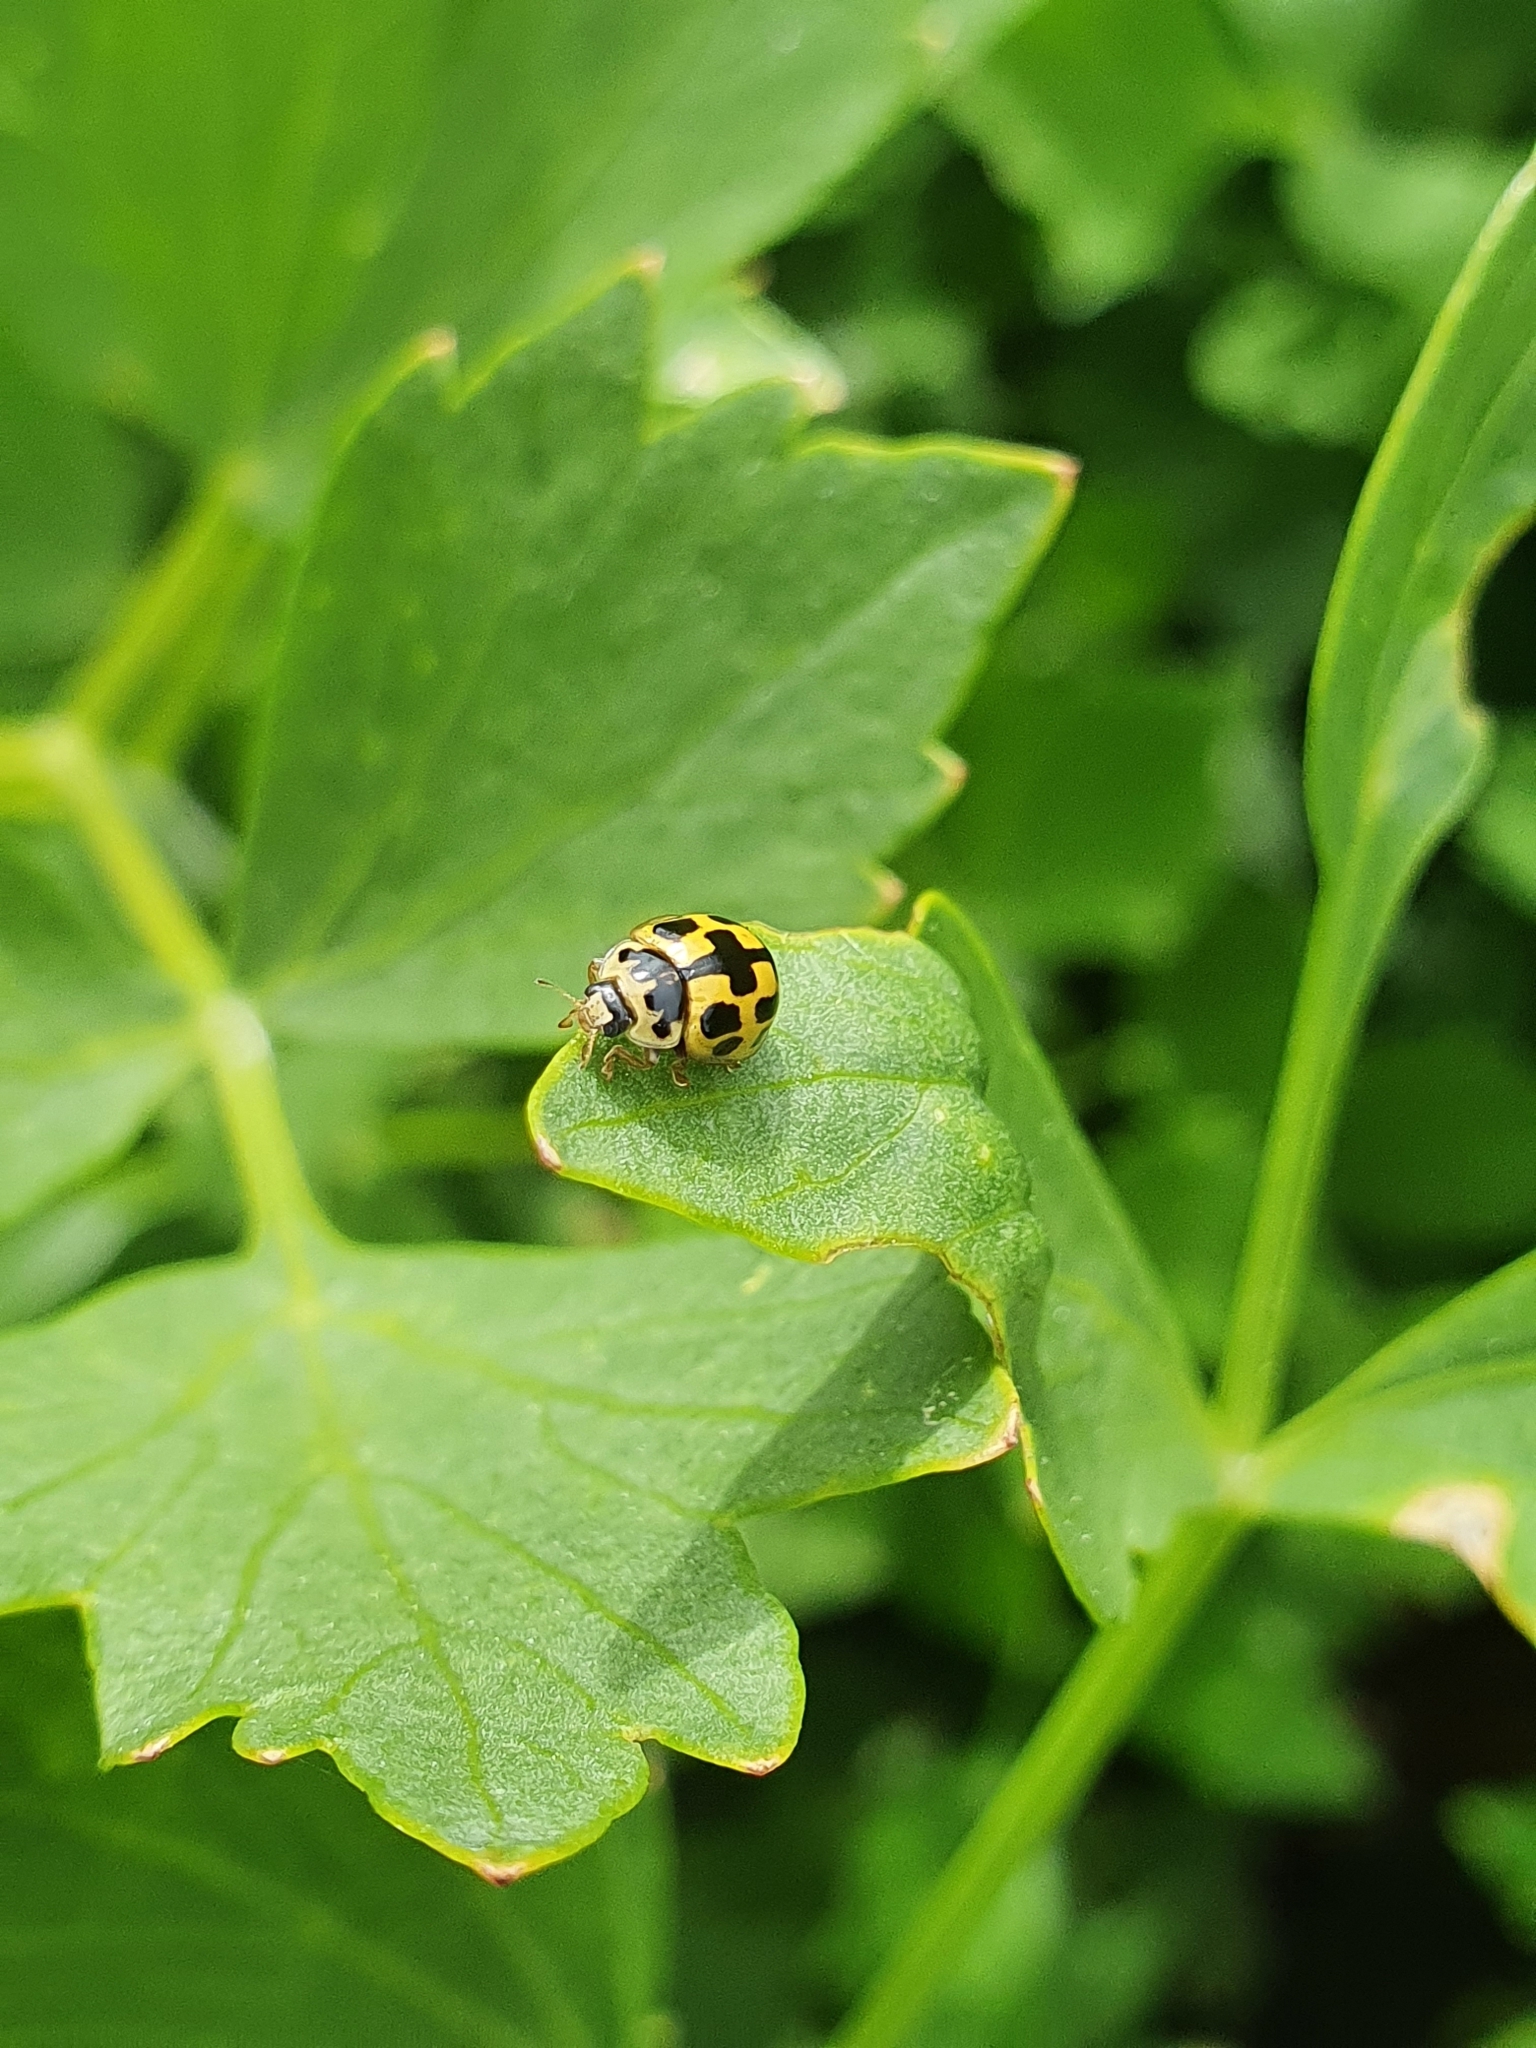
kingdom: Animalia
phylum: Arthropoda
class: Insecta
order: Coleoptera
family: Coccinellidae
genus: Propylaea
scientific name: Propylaea quatuordecimpunctata
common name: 14-spotted ladybird beetle
